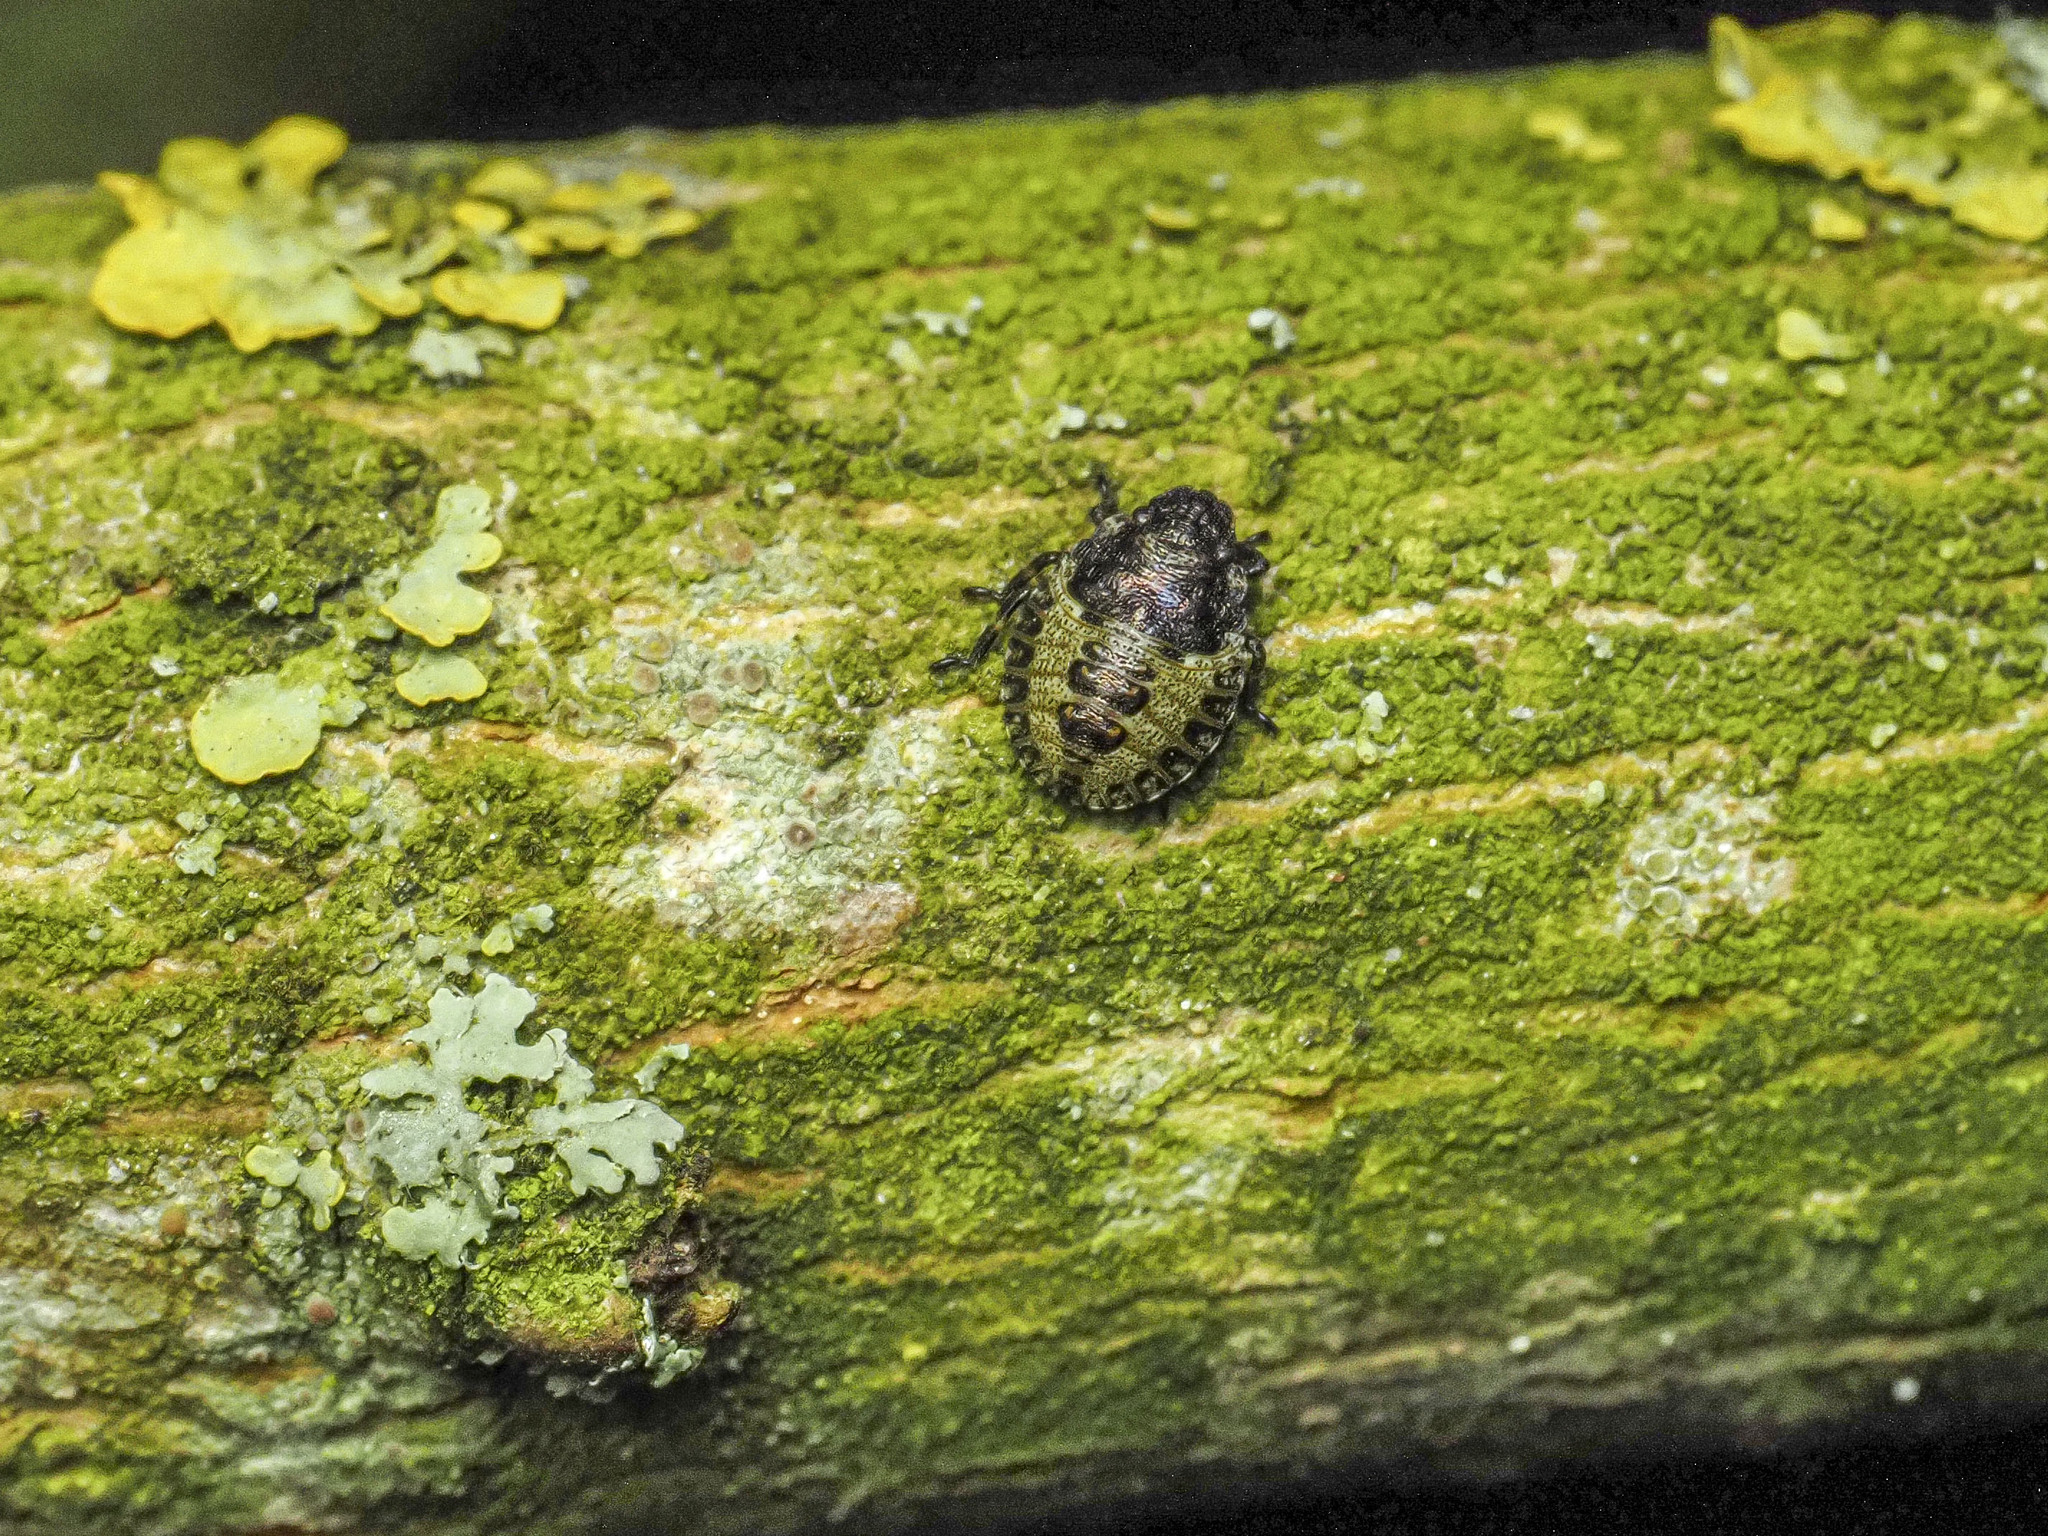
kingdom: Animalia
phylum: Arthropoda
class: Insecta
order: Hemiptera
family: Pentatomidae
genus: Pentatoma
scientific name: Pentatoma rufipes
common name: Forest bug
